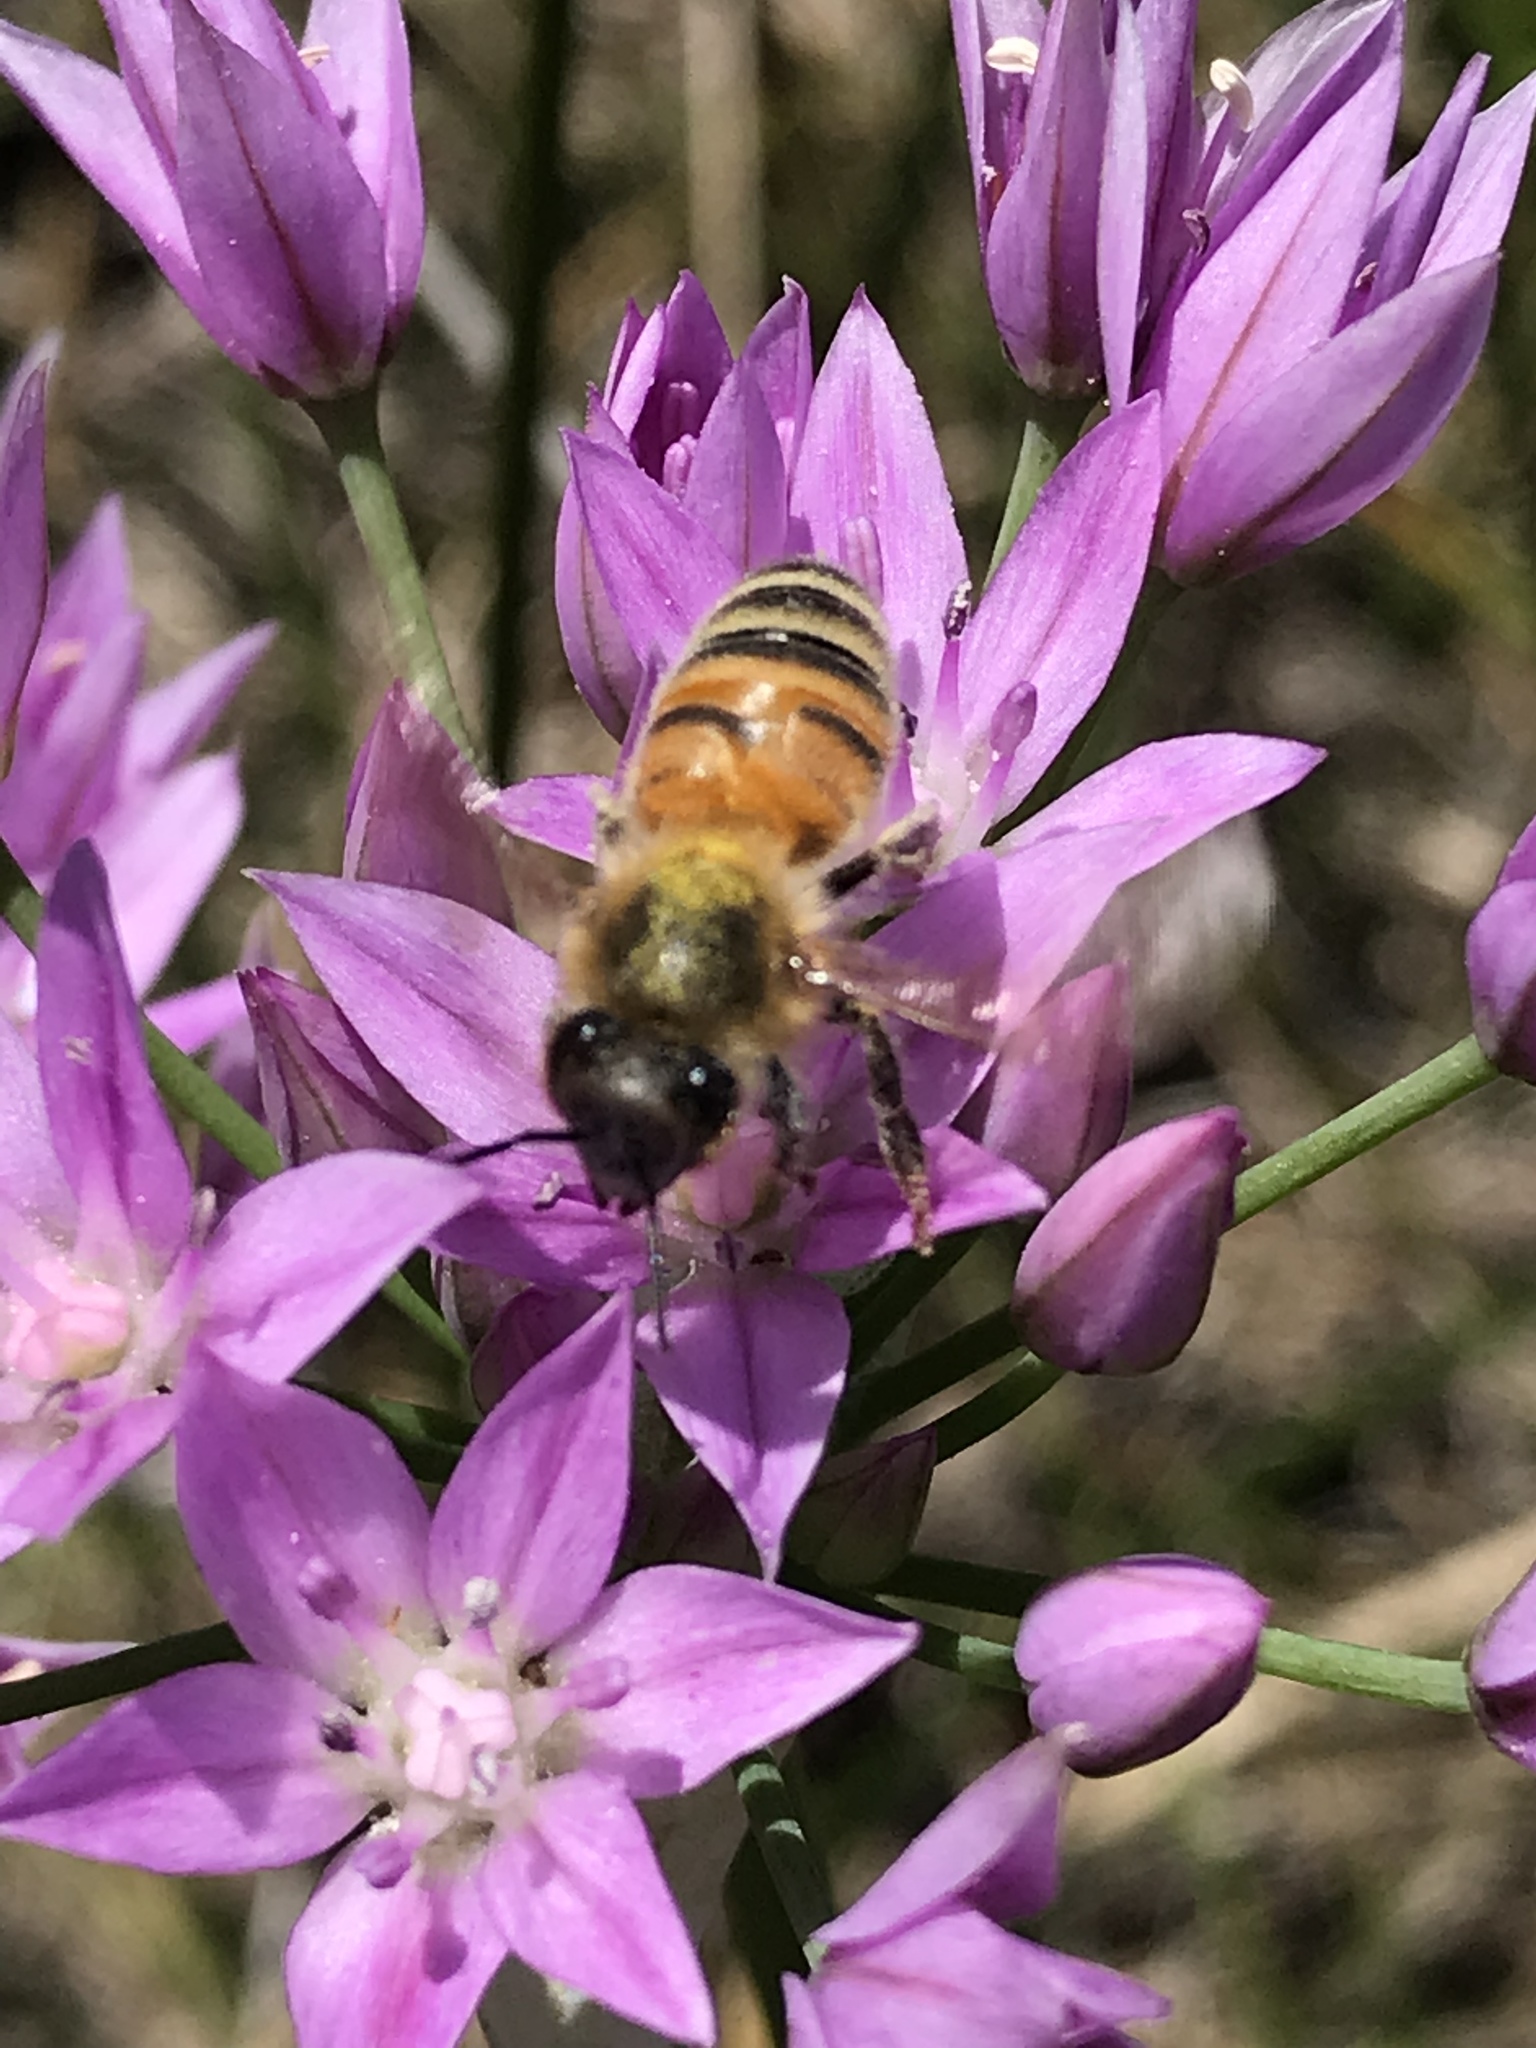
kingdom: Animalia
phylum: Arthropoda
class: Insecta
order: Hymenoptera
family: Apidae
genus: Apis
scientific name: Apis mellifera
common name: Honey bee
